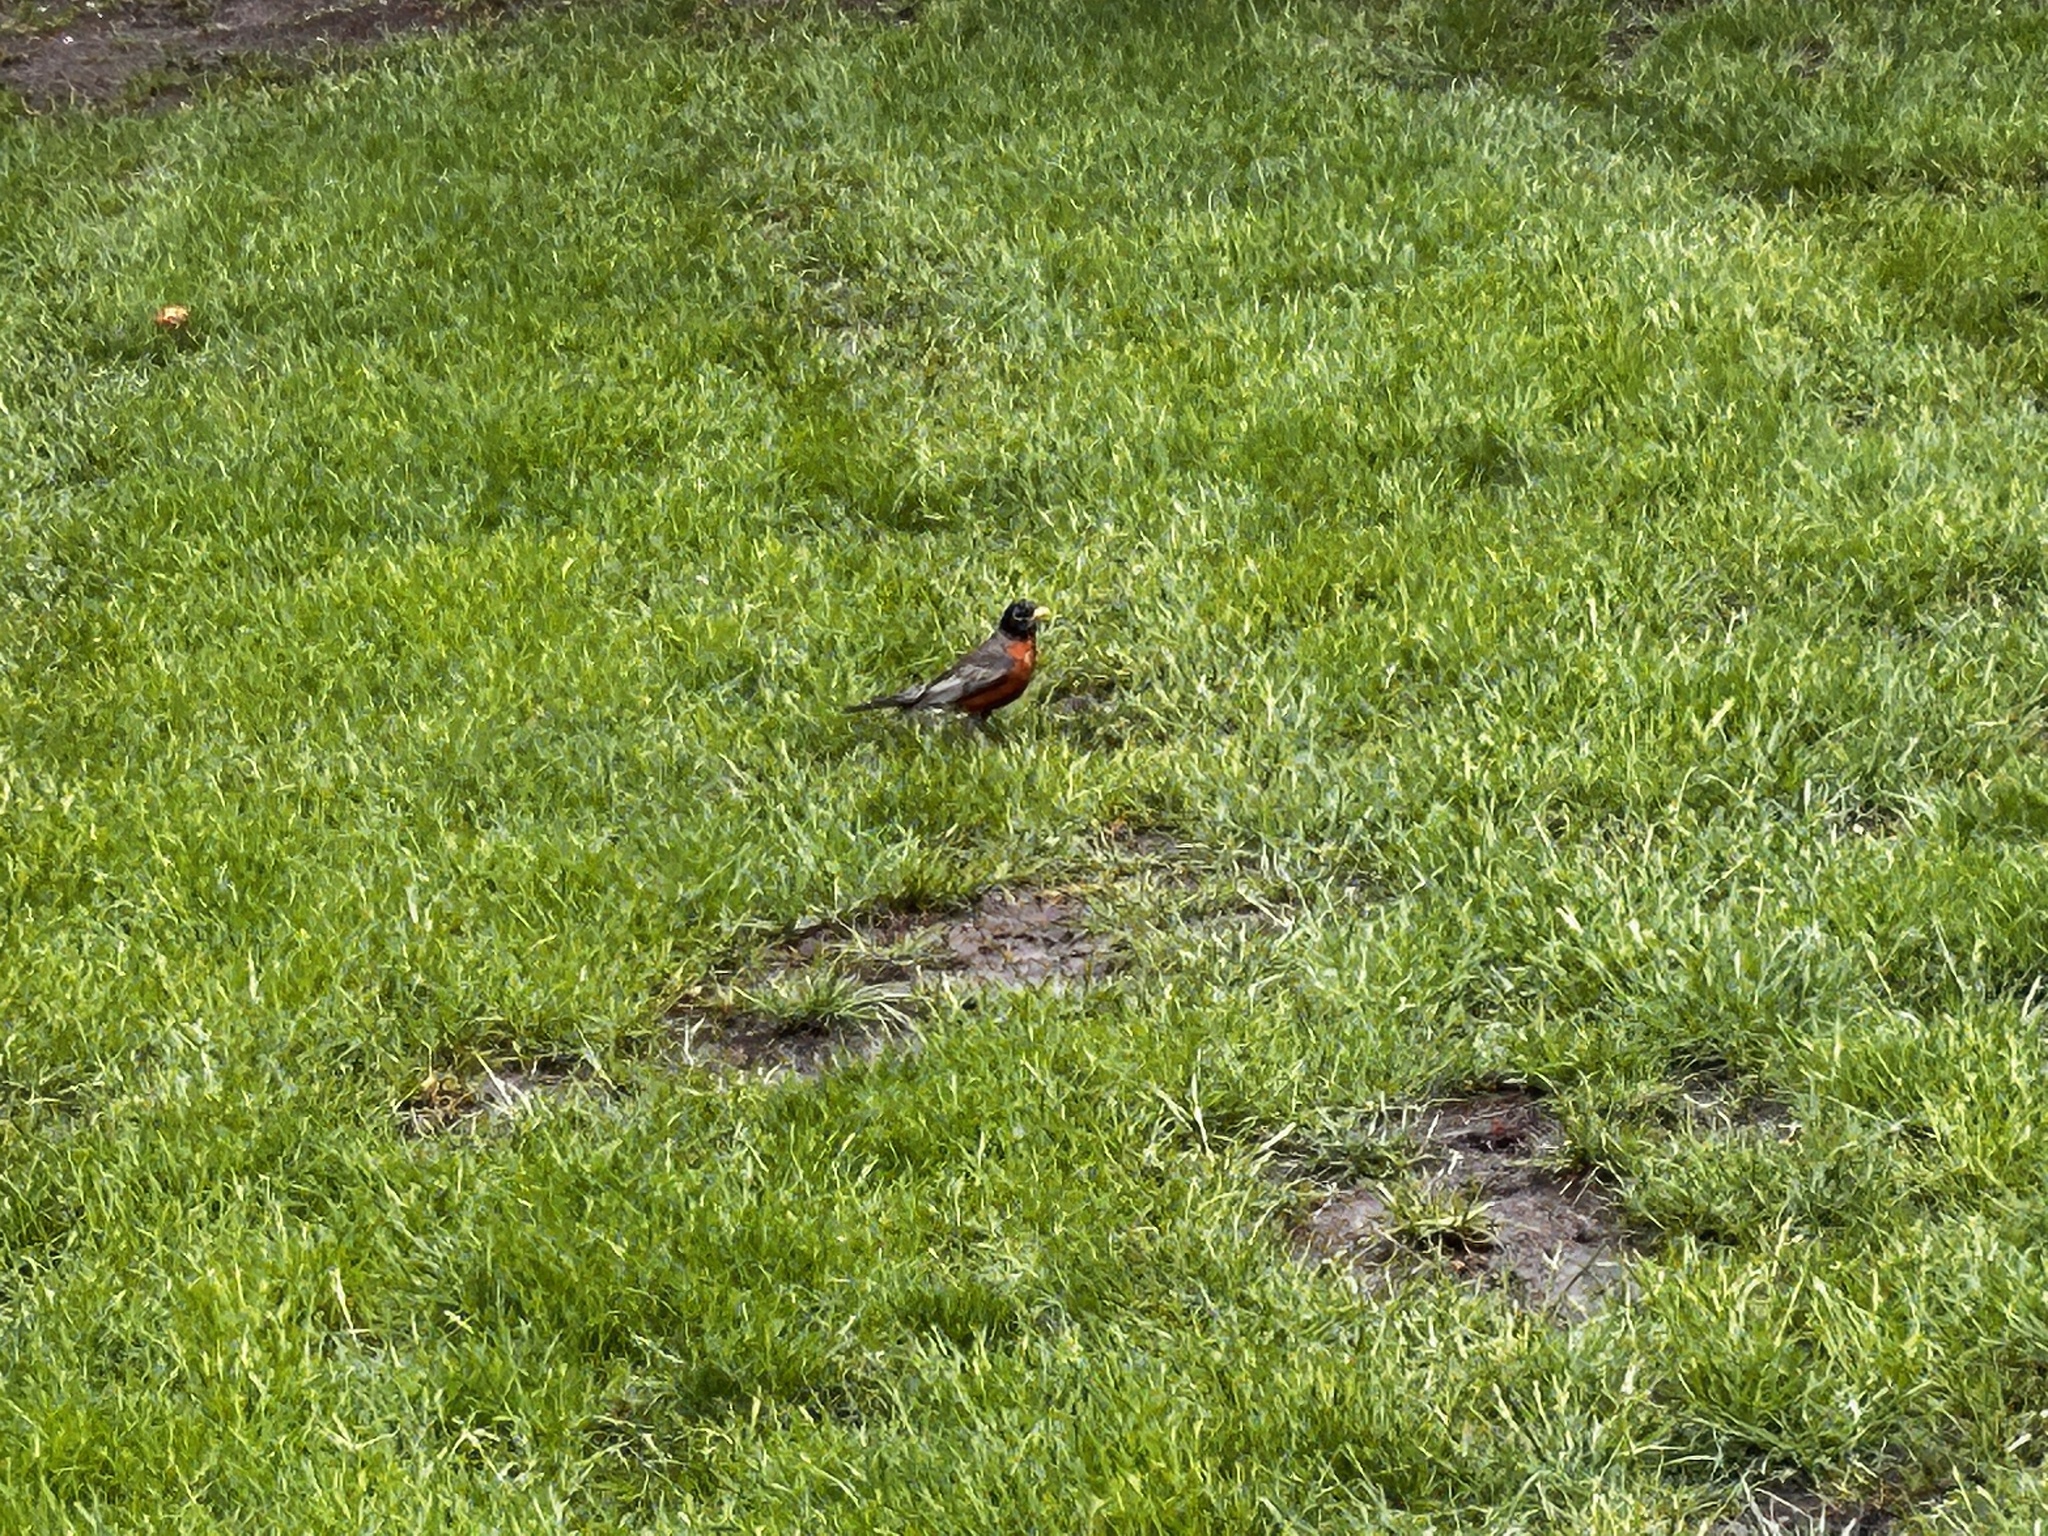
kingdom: Animalia
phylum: Chordata
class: Aves
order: Passeriformes
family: Turdidae
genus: Turdus
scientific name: Turdus migratorius
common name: American robin
